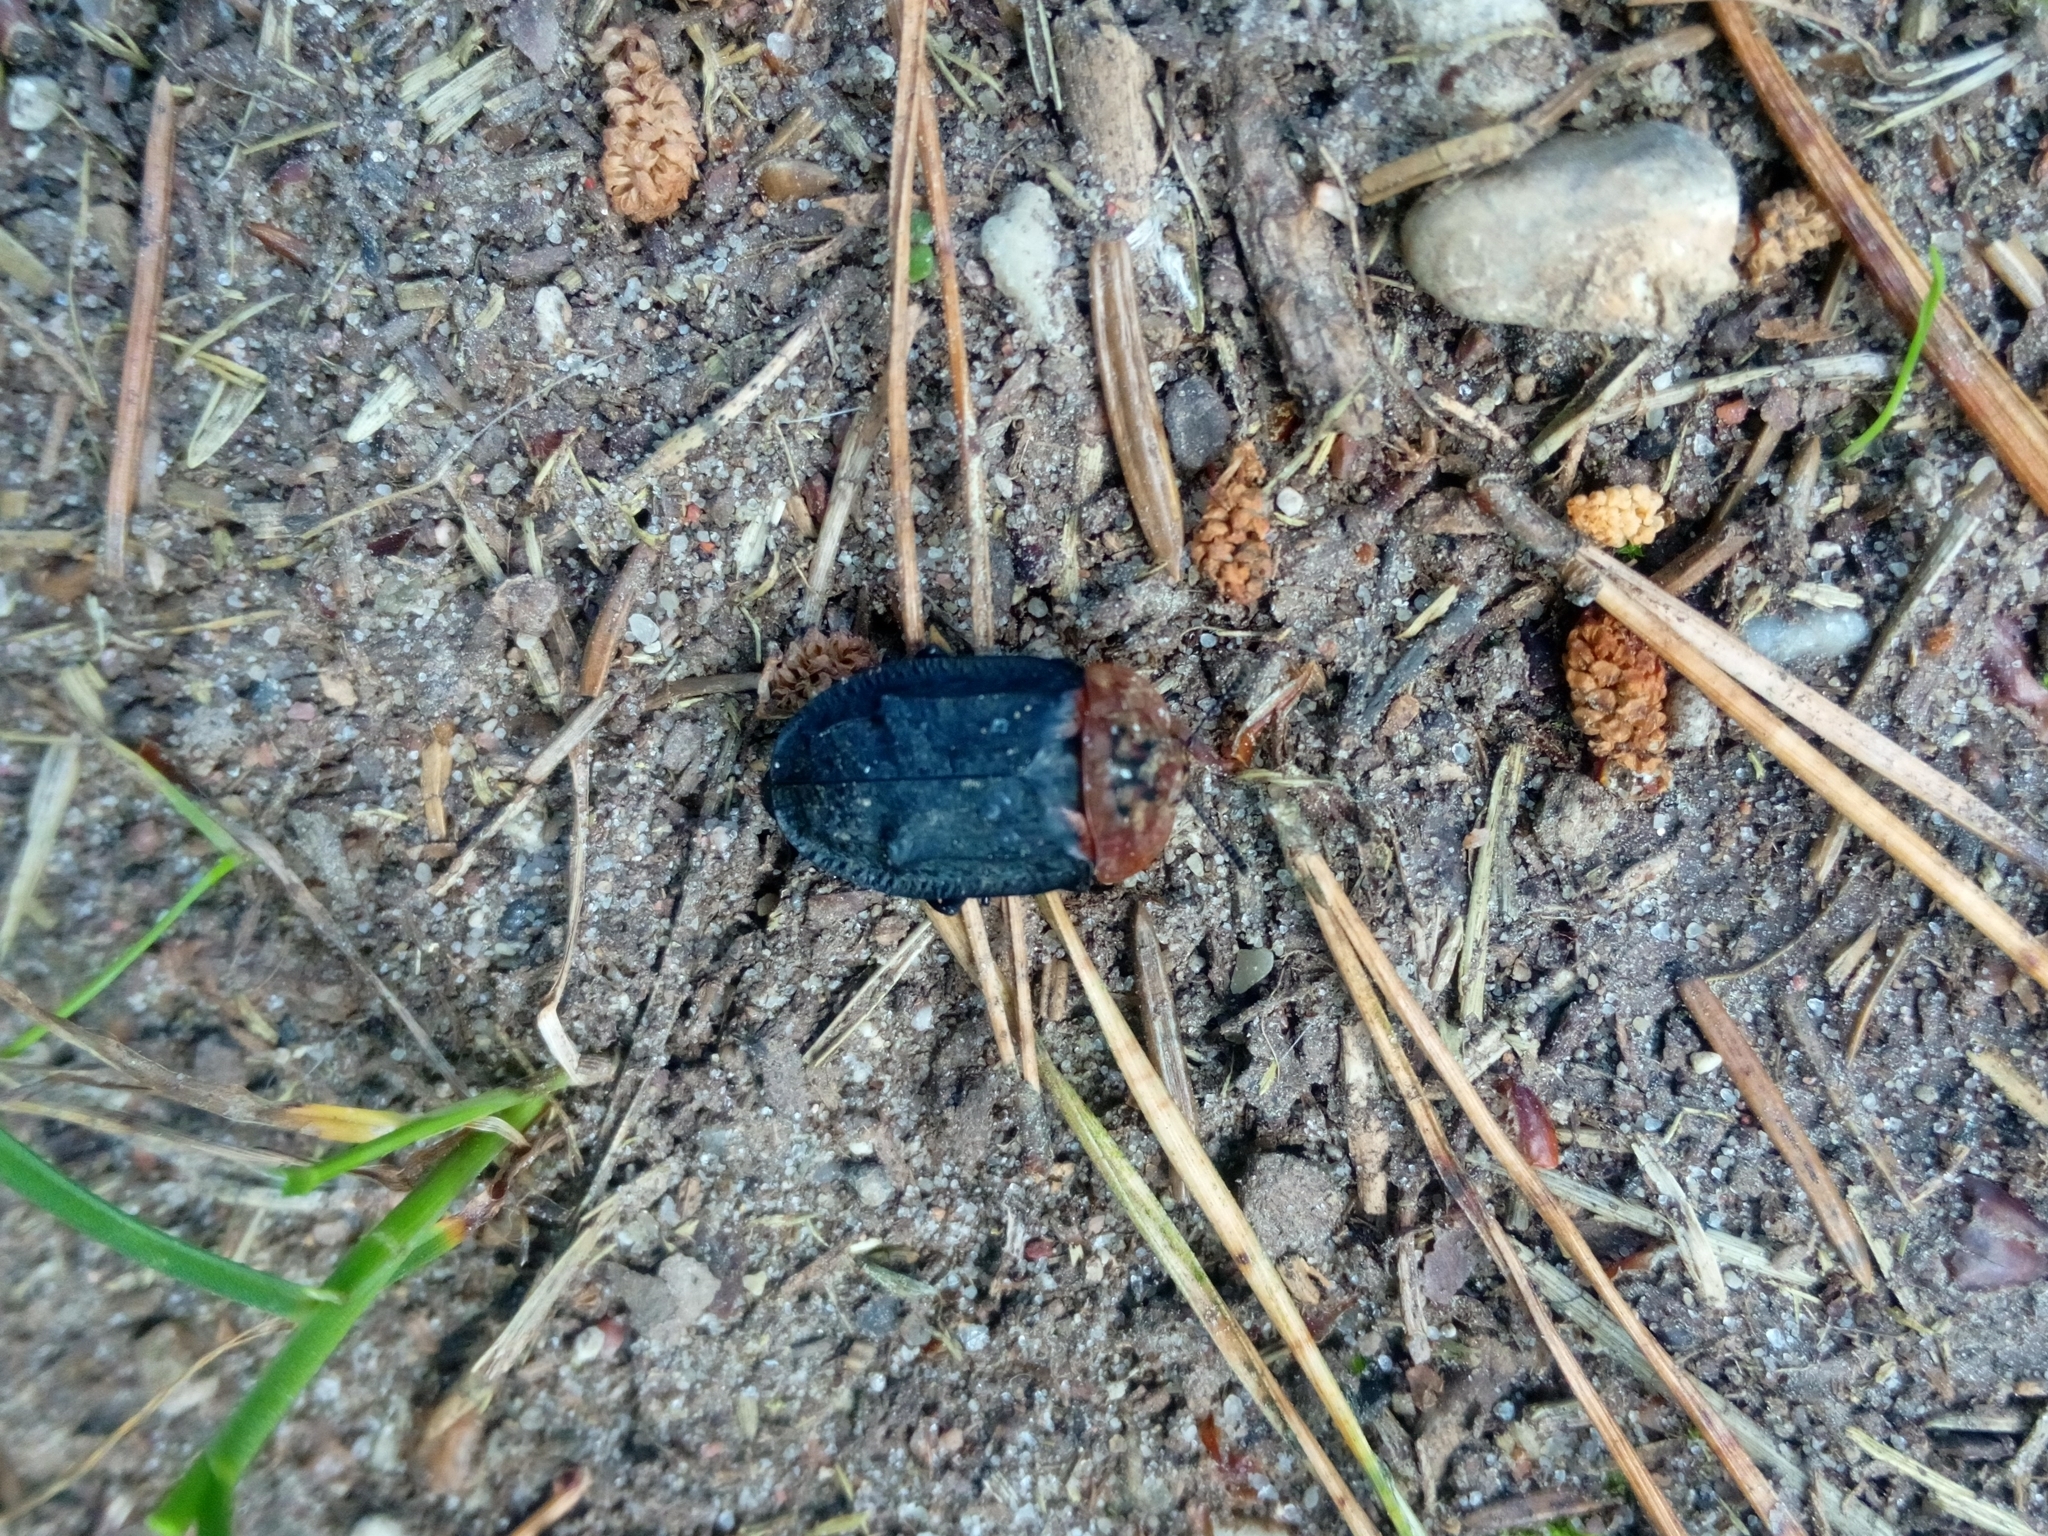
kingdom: Animalia
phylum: Arthropoda
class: Insecta
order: Coleoptera
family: Staphylinidae
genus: Oiceoptoma
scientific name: Oiceoptoma thoracicum
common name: Red-breasted carrion beetle
